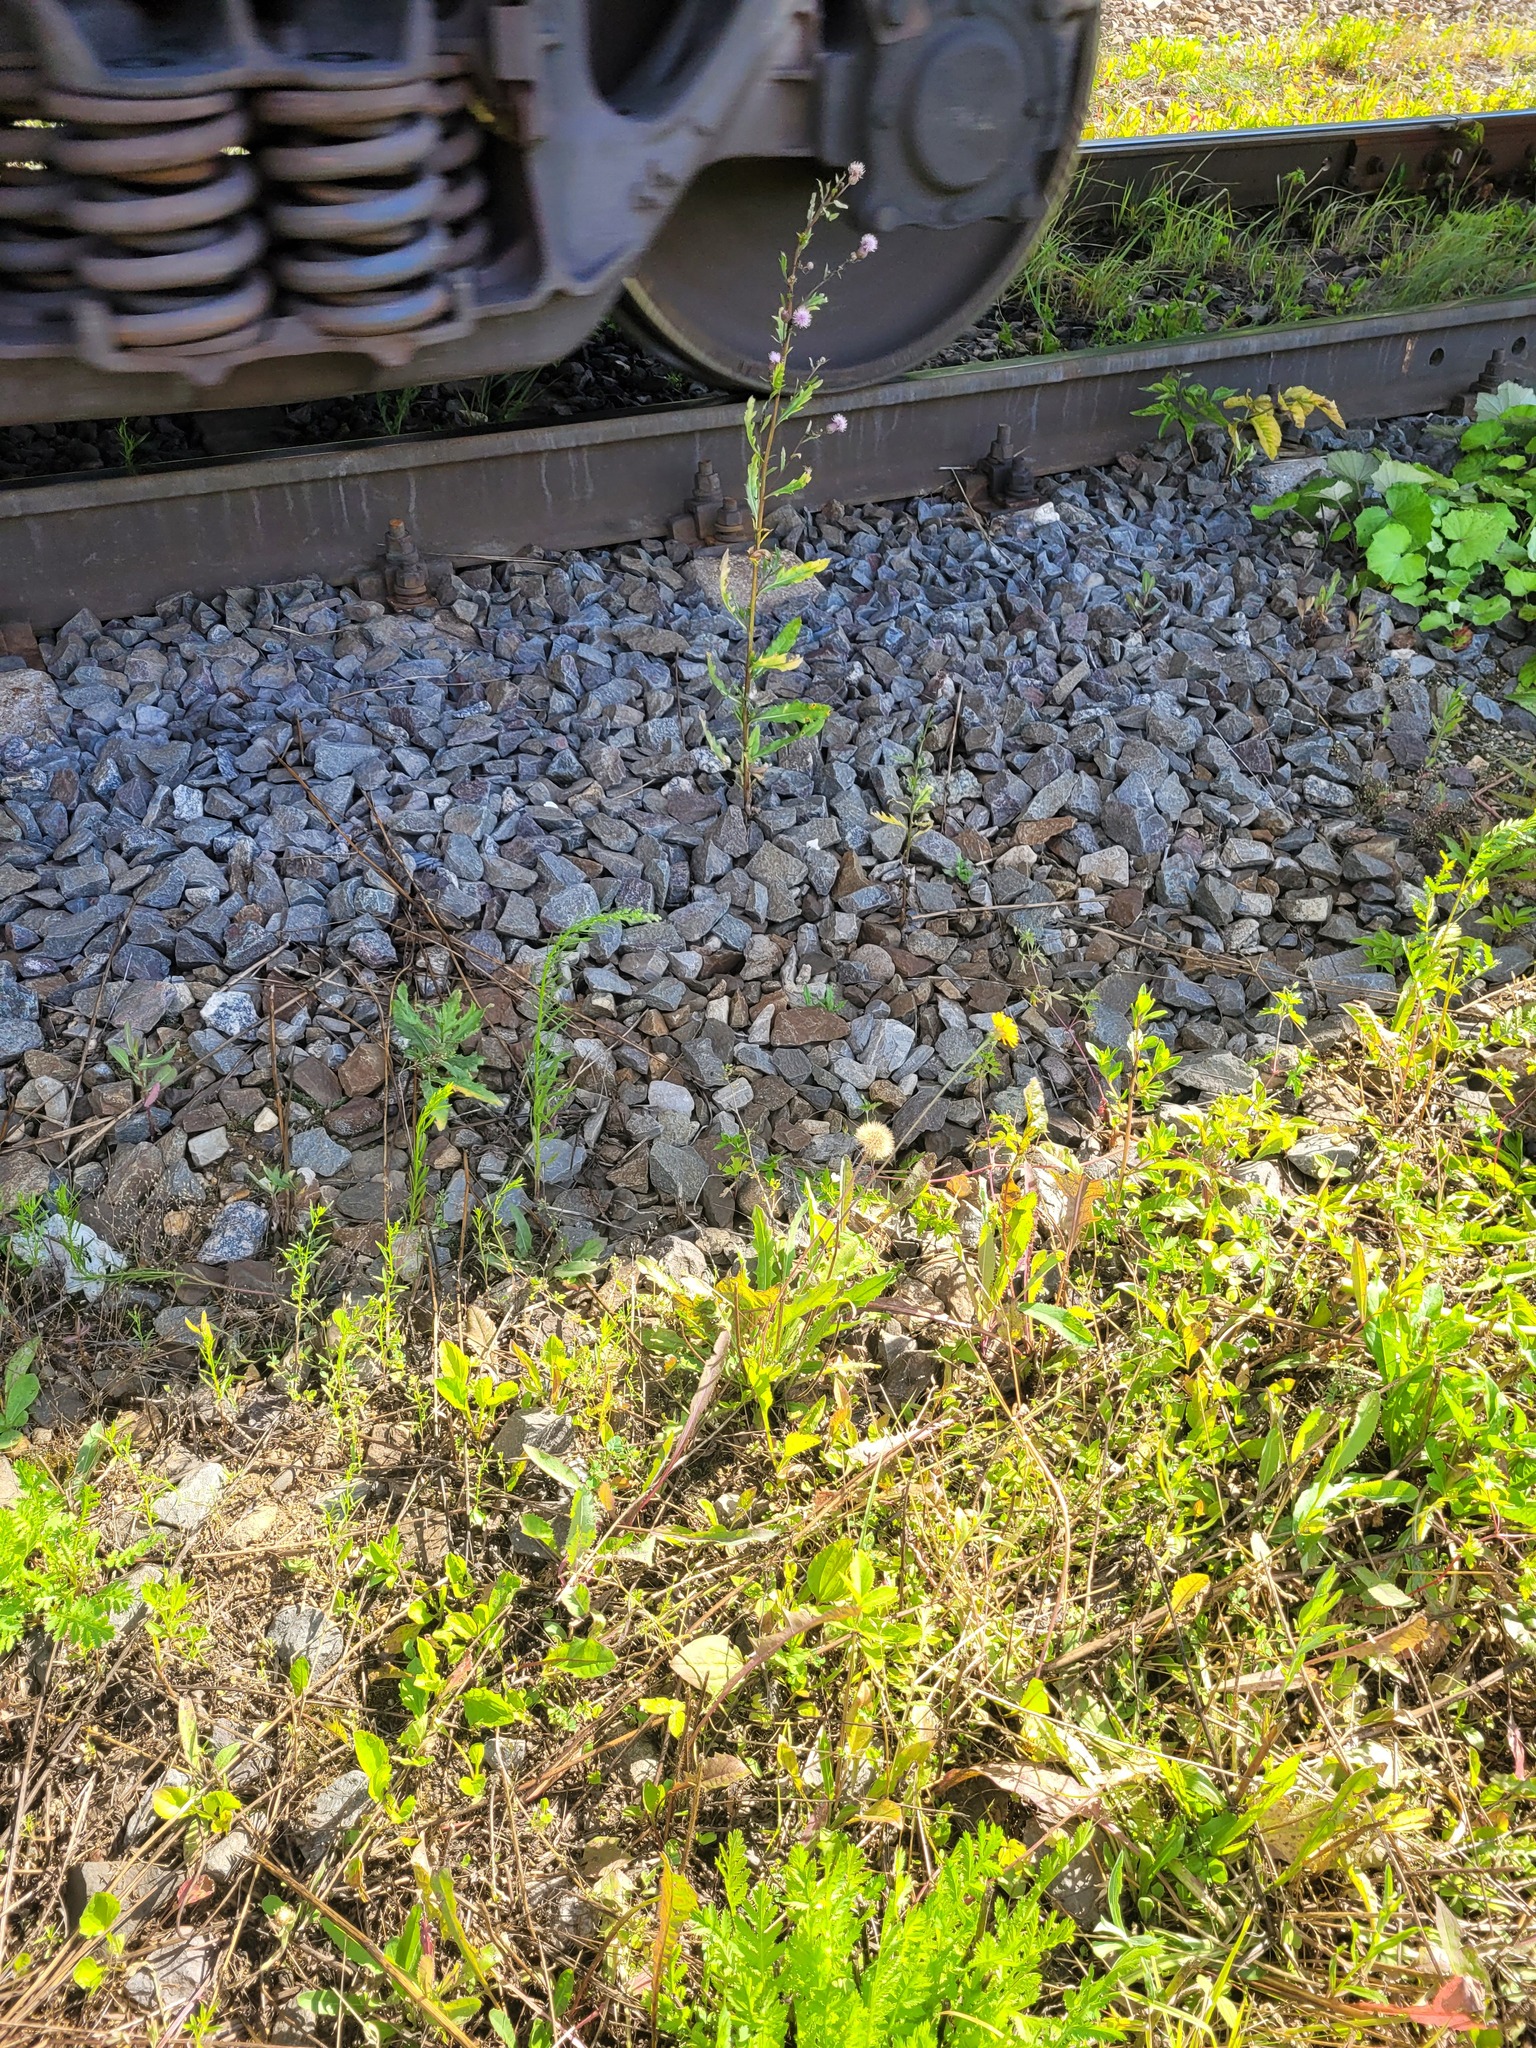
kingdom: Plantae
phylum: Tracheophyta
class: Magnoliopsida
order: Asterales
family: Asteraceae
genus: Leontodon
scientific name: Leontodon hispidus
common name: Rough hawkbit
